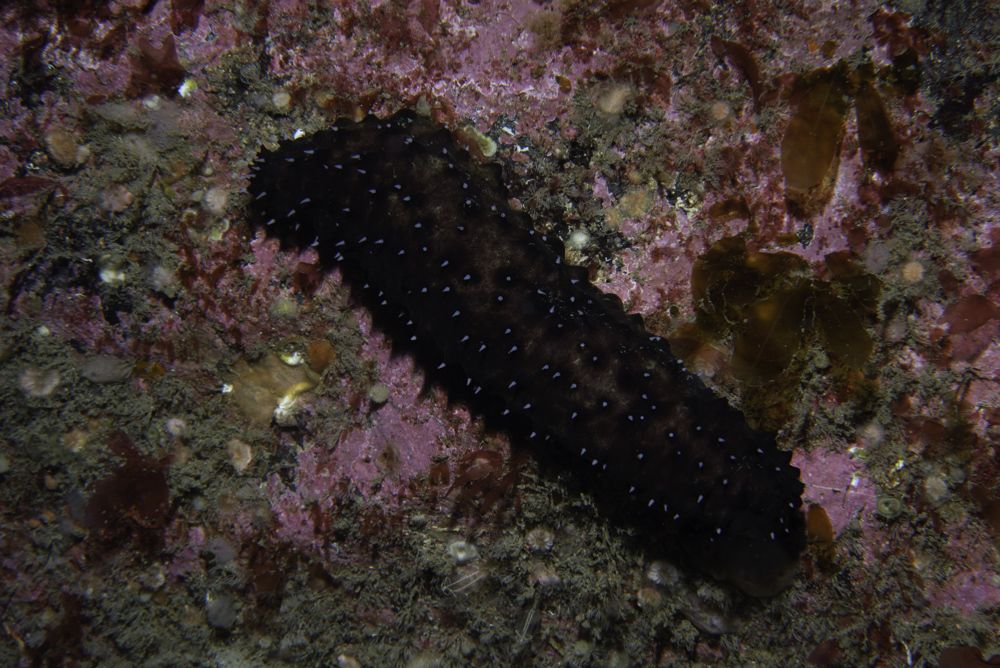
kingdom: Animalia
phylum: Echinodermata
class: Holothuroidea
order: Holothuriida
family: Holothuriidae
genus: Holothuria
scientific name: Holothuria forskali
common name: Black sea cucumber
